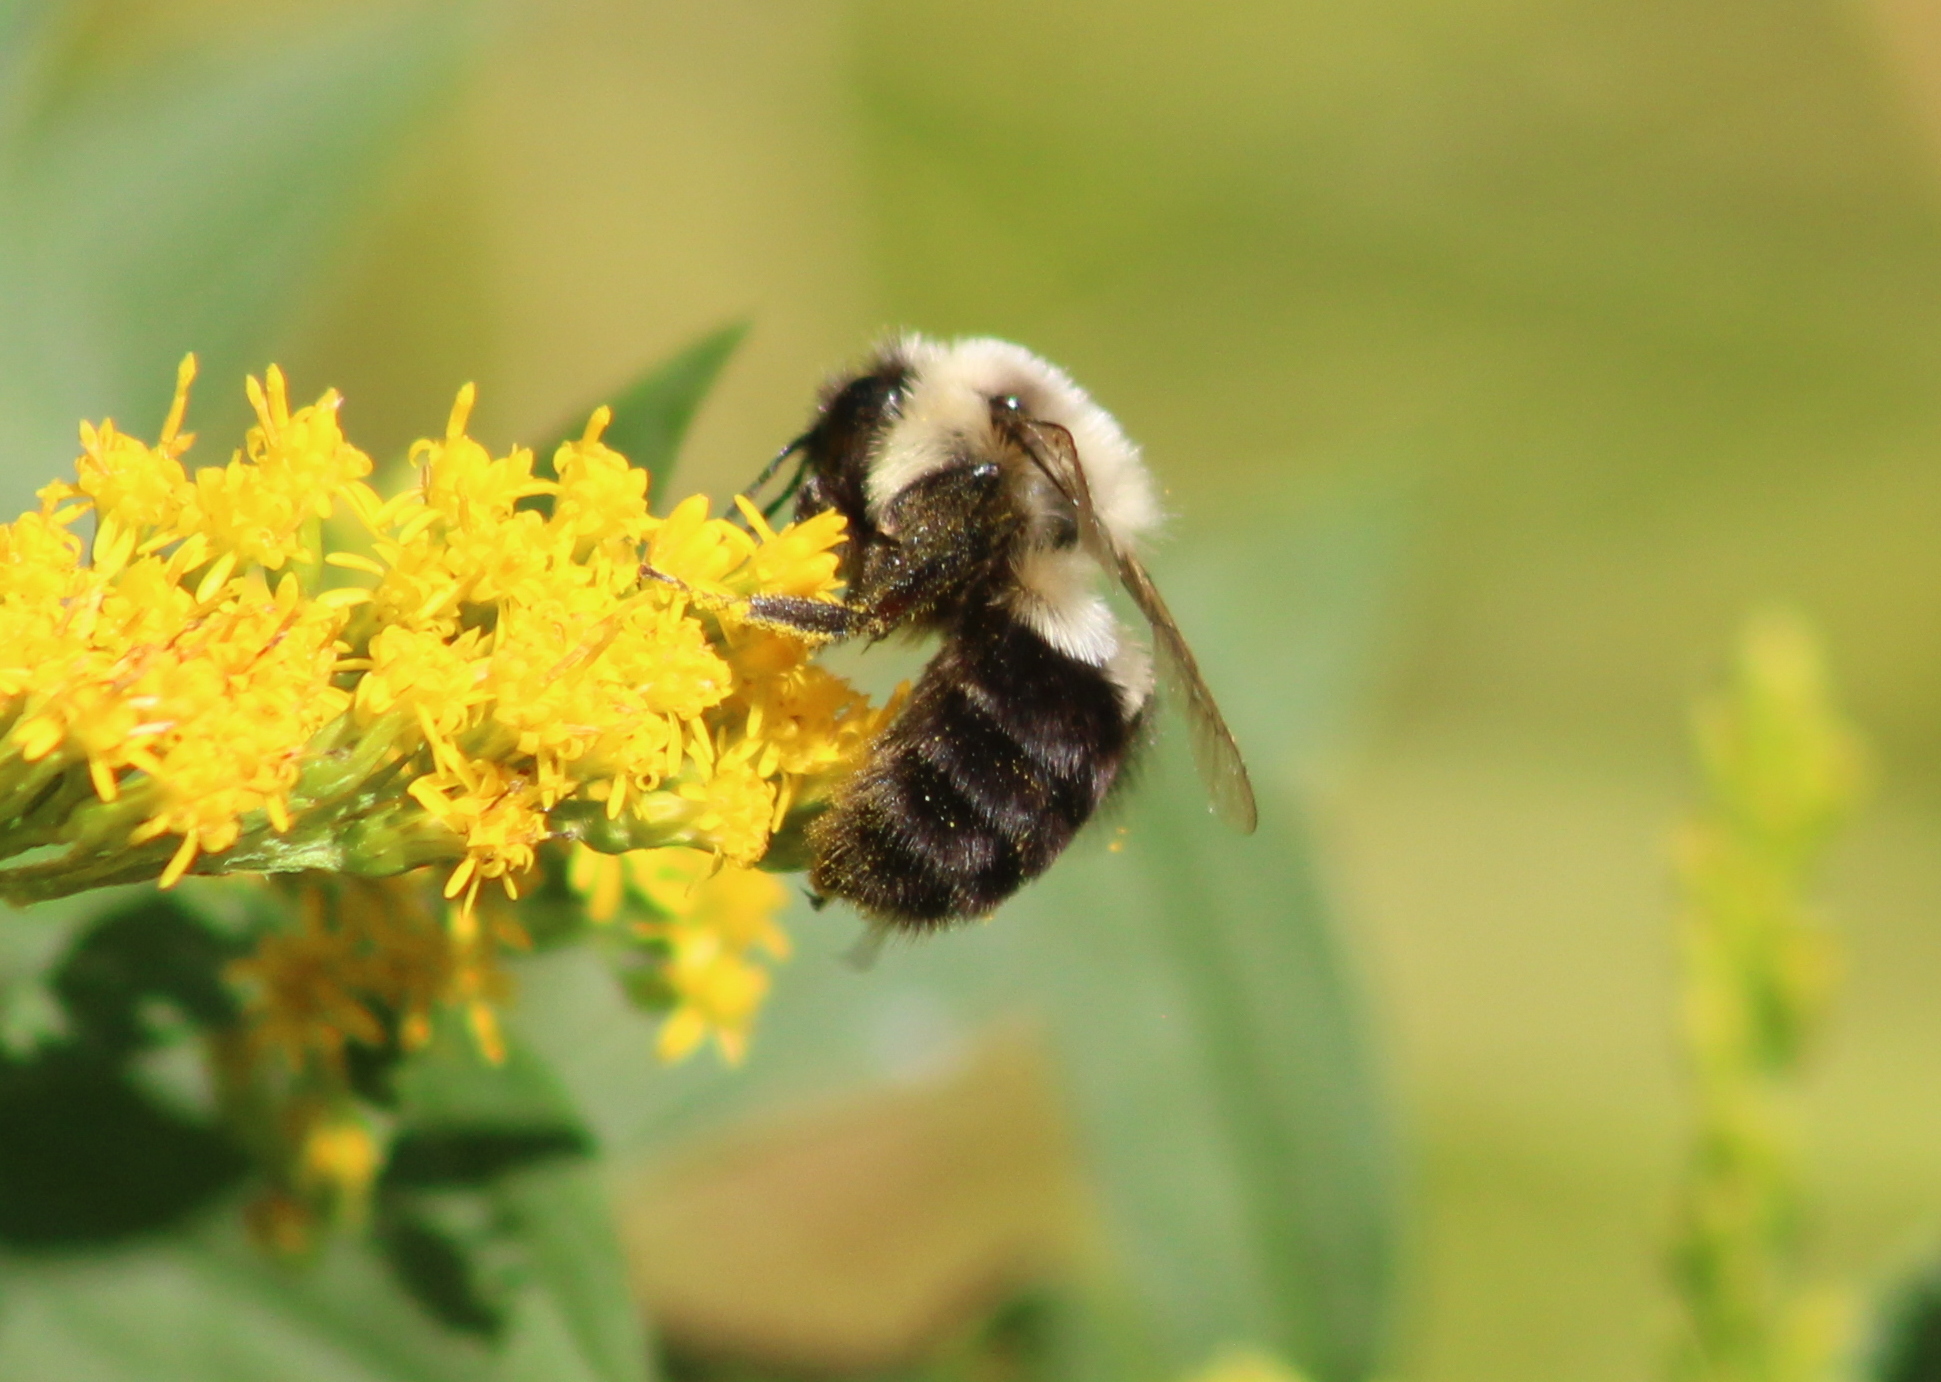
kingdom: Animalia
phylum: Arthropoda
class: Insecta
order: Hymenoptera
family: Apidae
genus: Bombus
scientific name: Bombus impatiens
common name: Common eastern bumble bee
